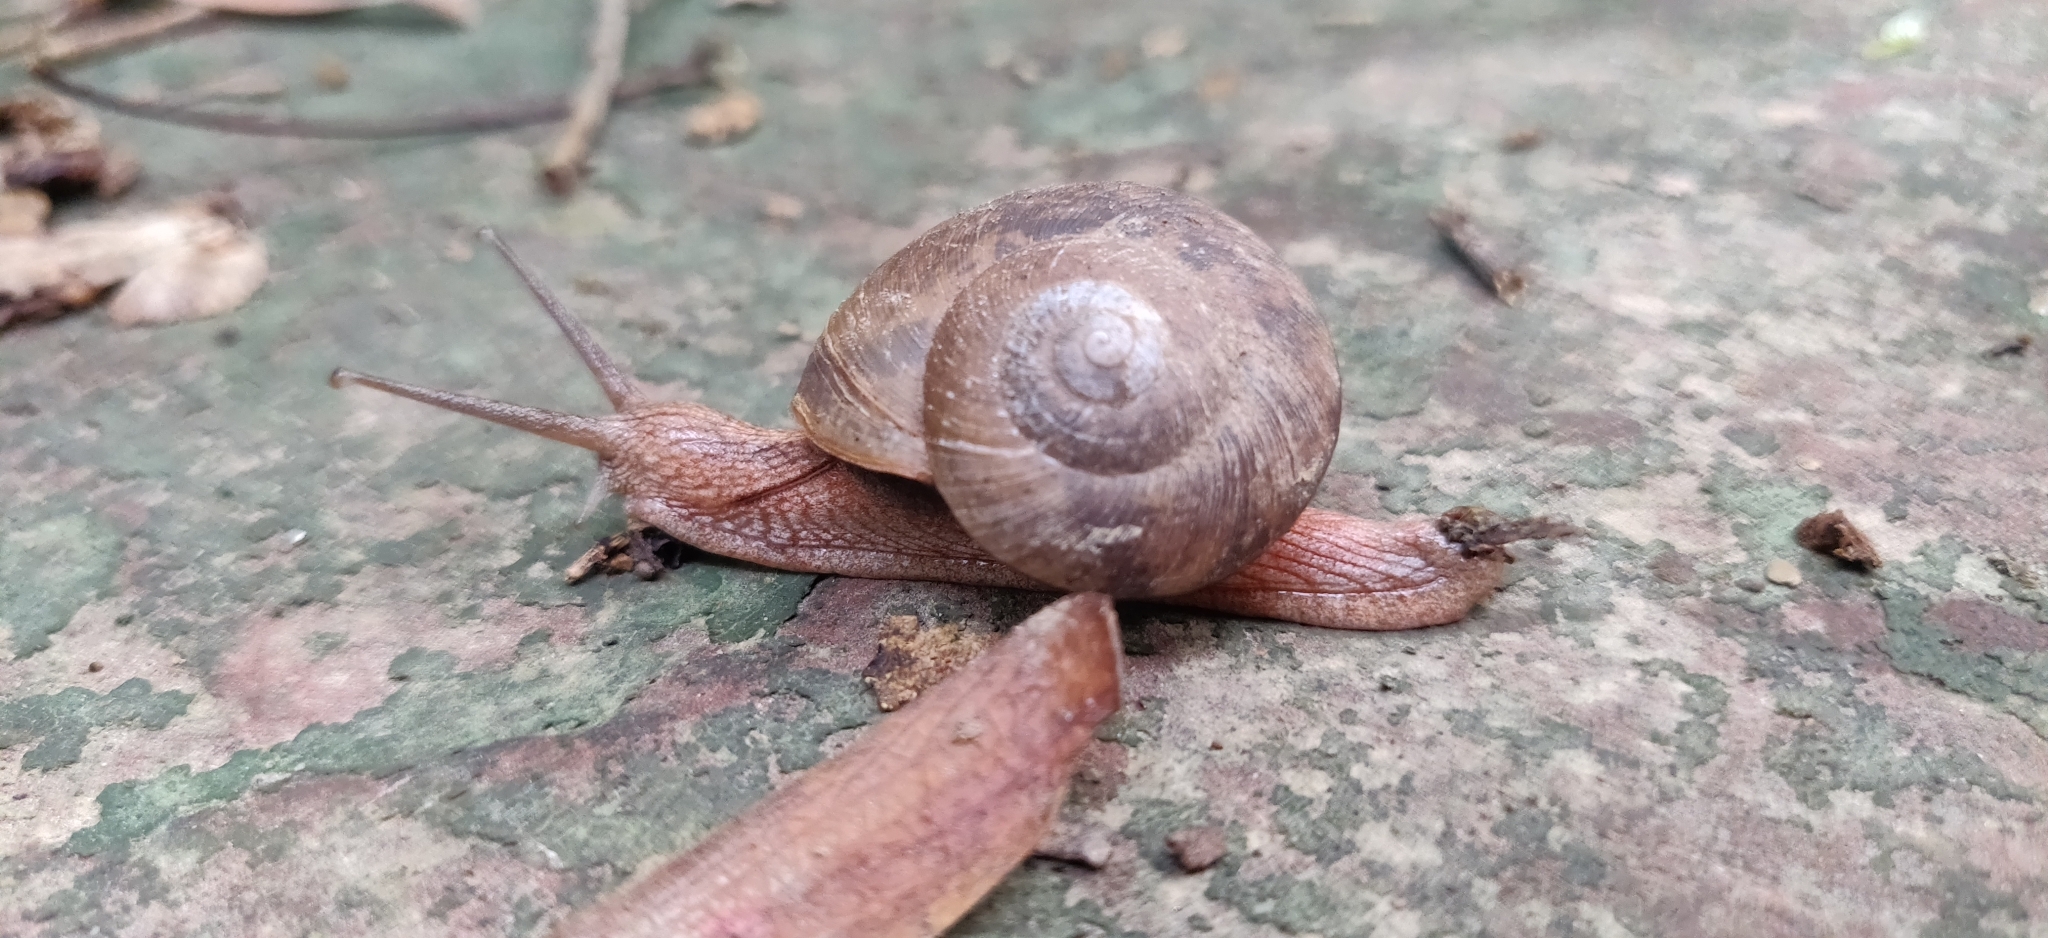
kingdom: Animalia
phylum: Mollusca
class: Gastropoda
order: Stylommatophora
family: Ariophantidae
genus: Ariophanta
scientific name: Ariophanta himalana
